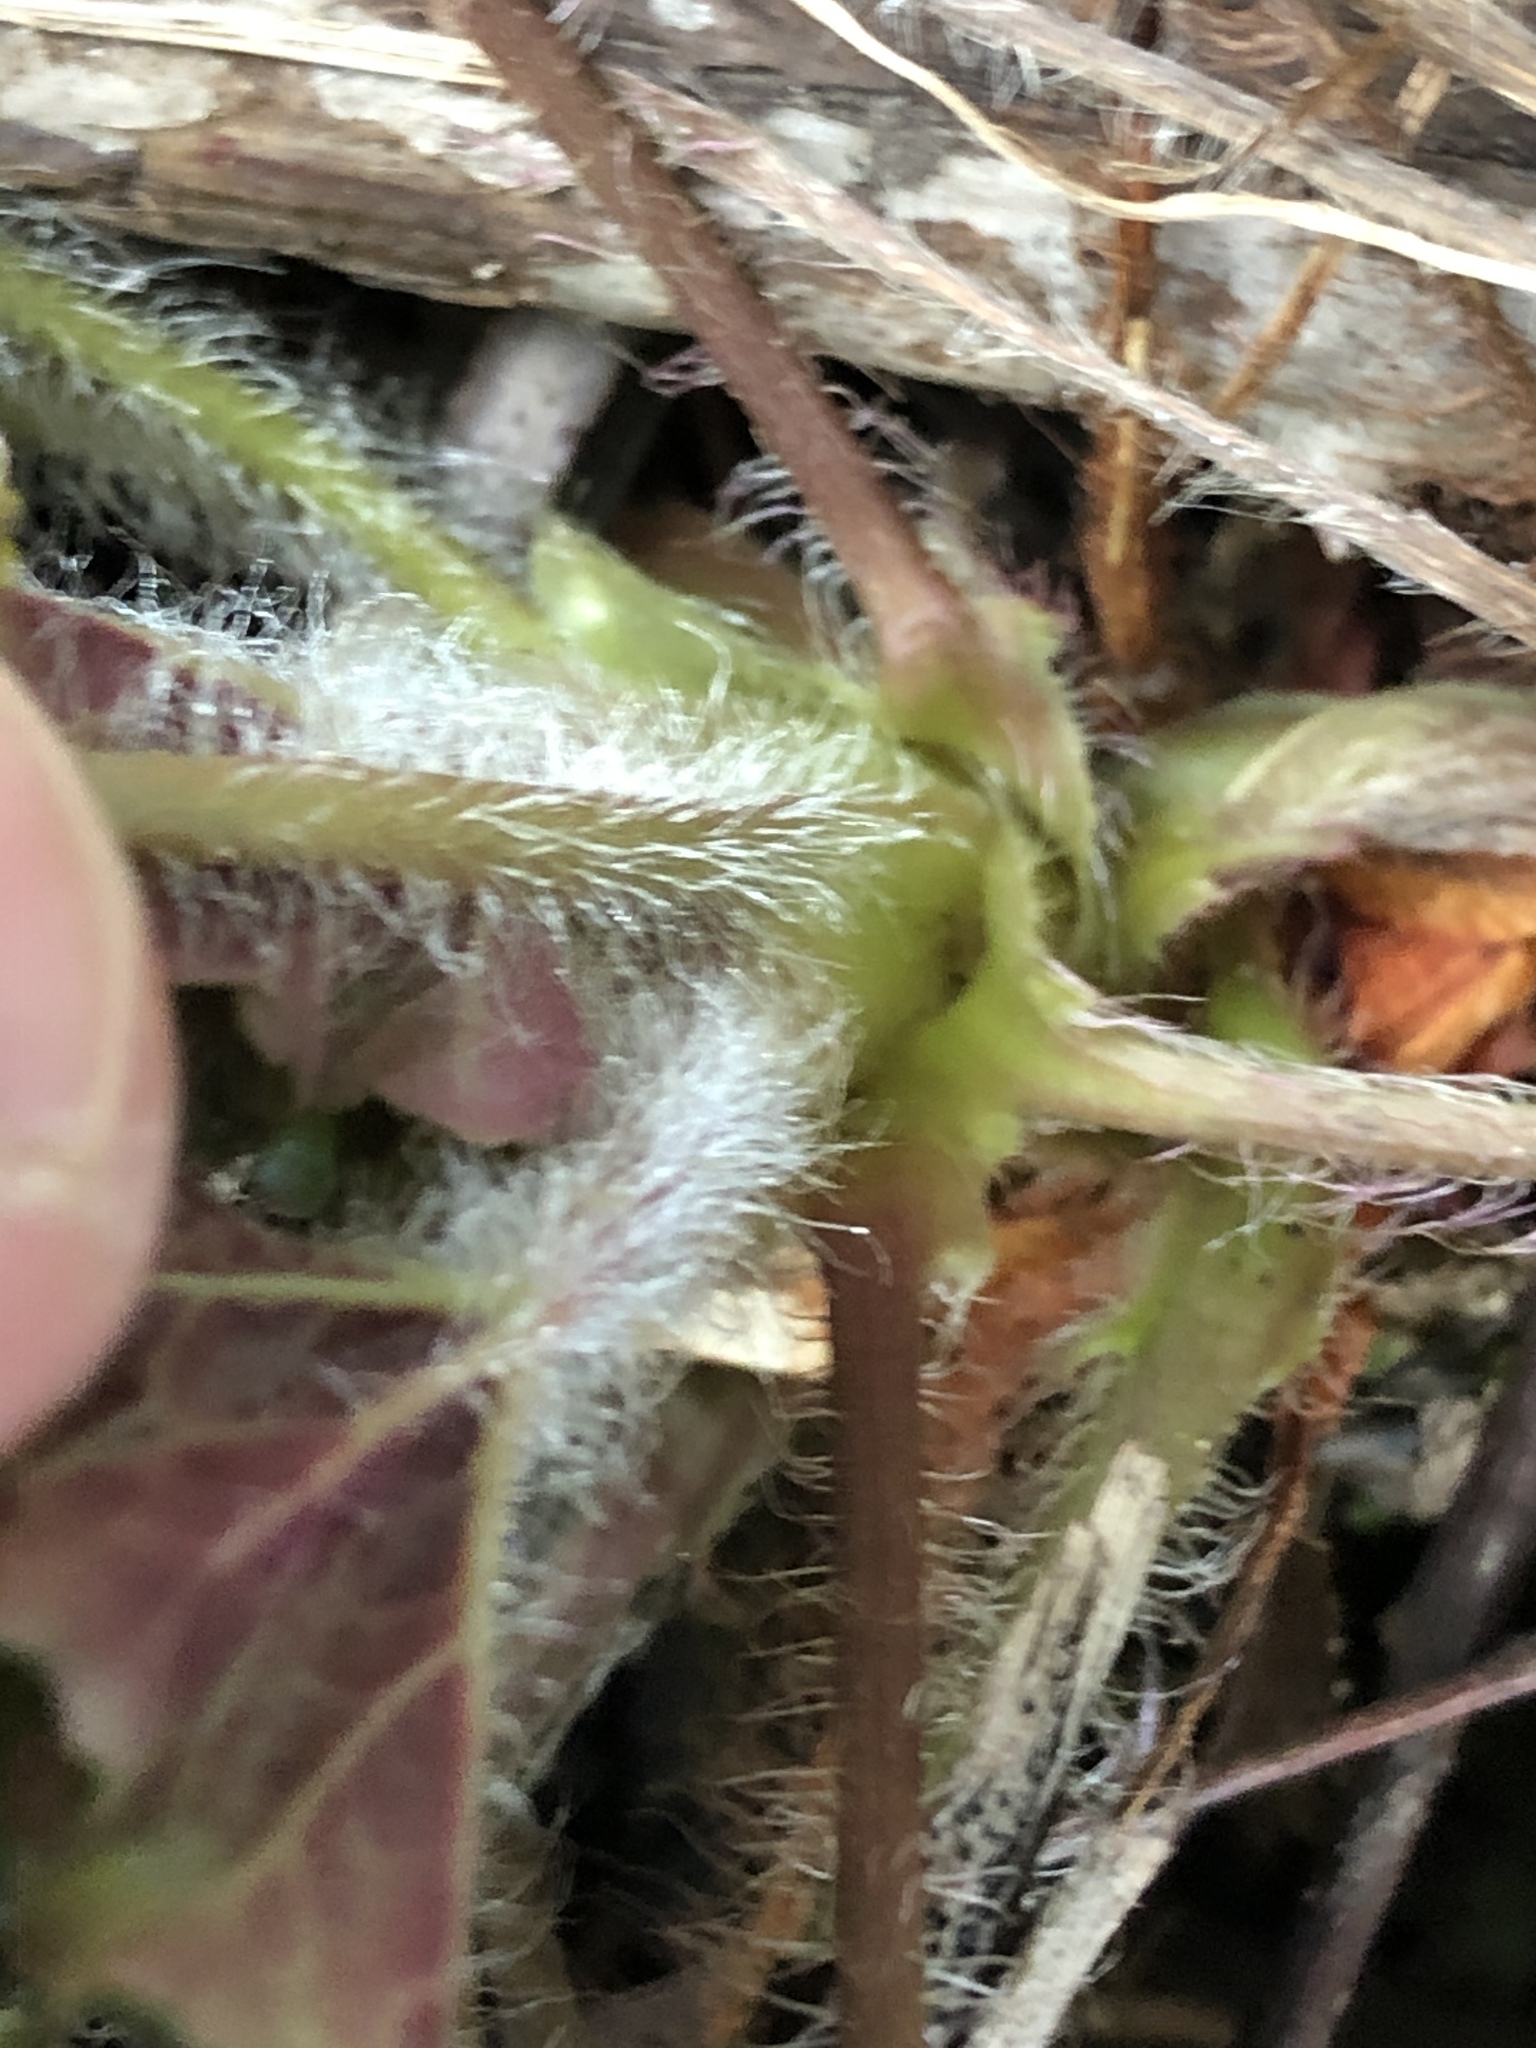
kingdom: Plantae
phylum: Tracheophyta
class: Magnoliopsida
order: Saxifragales
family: Saxifragaceae
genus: Heuchera
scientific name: Heuchera chlorantha
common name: Meadow alumroot
